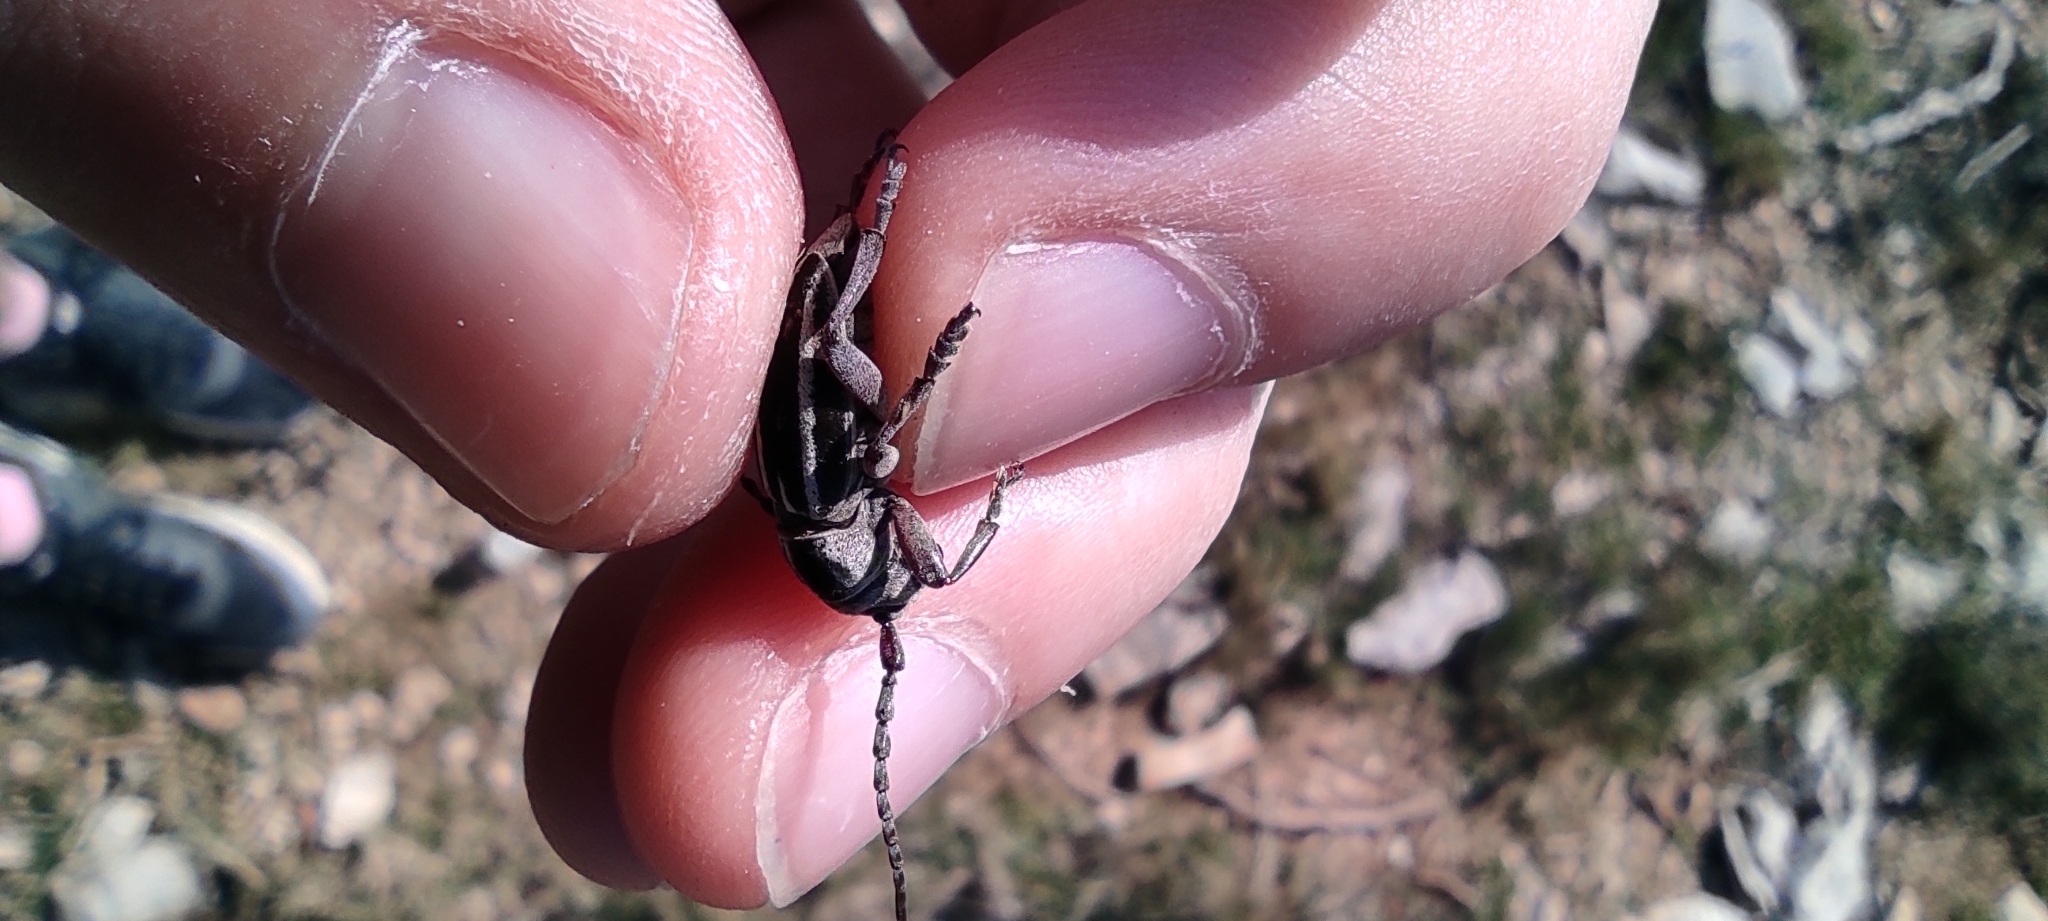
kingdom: Animalia
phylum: Arthropoda
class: Insecta
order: Coleoptera
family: Cerambycidae
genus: Iberodorcadion
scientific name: Iberodorcadion molitor
